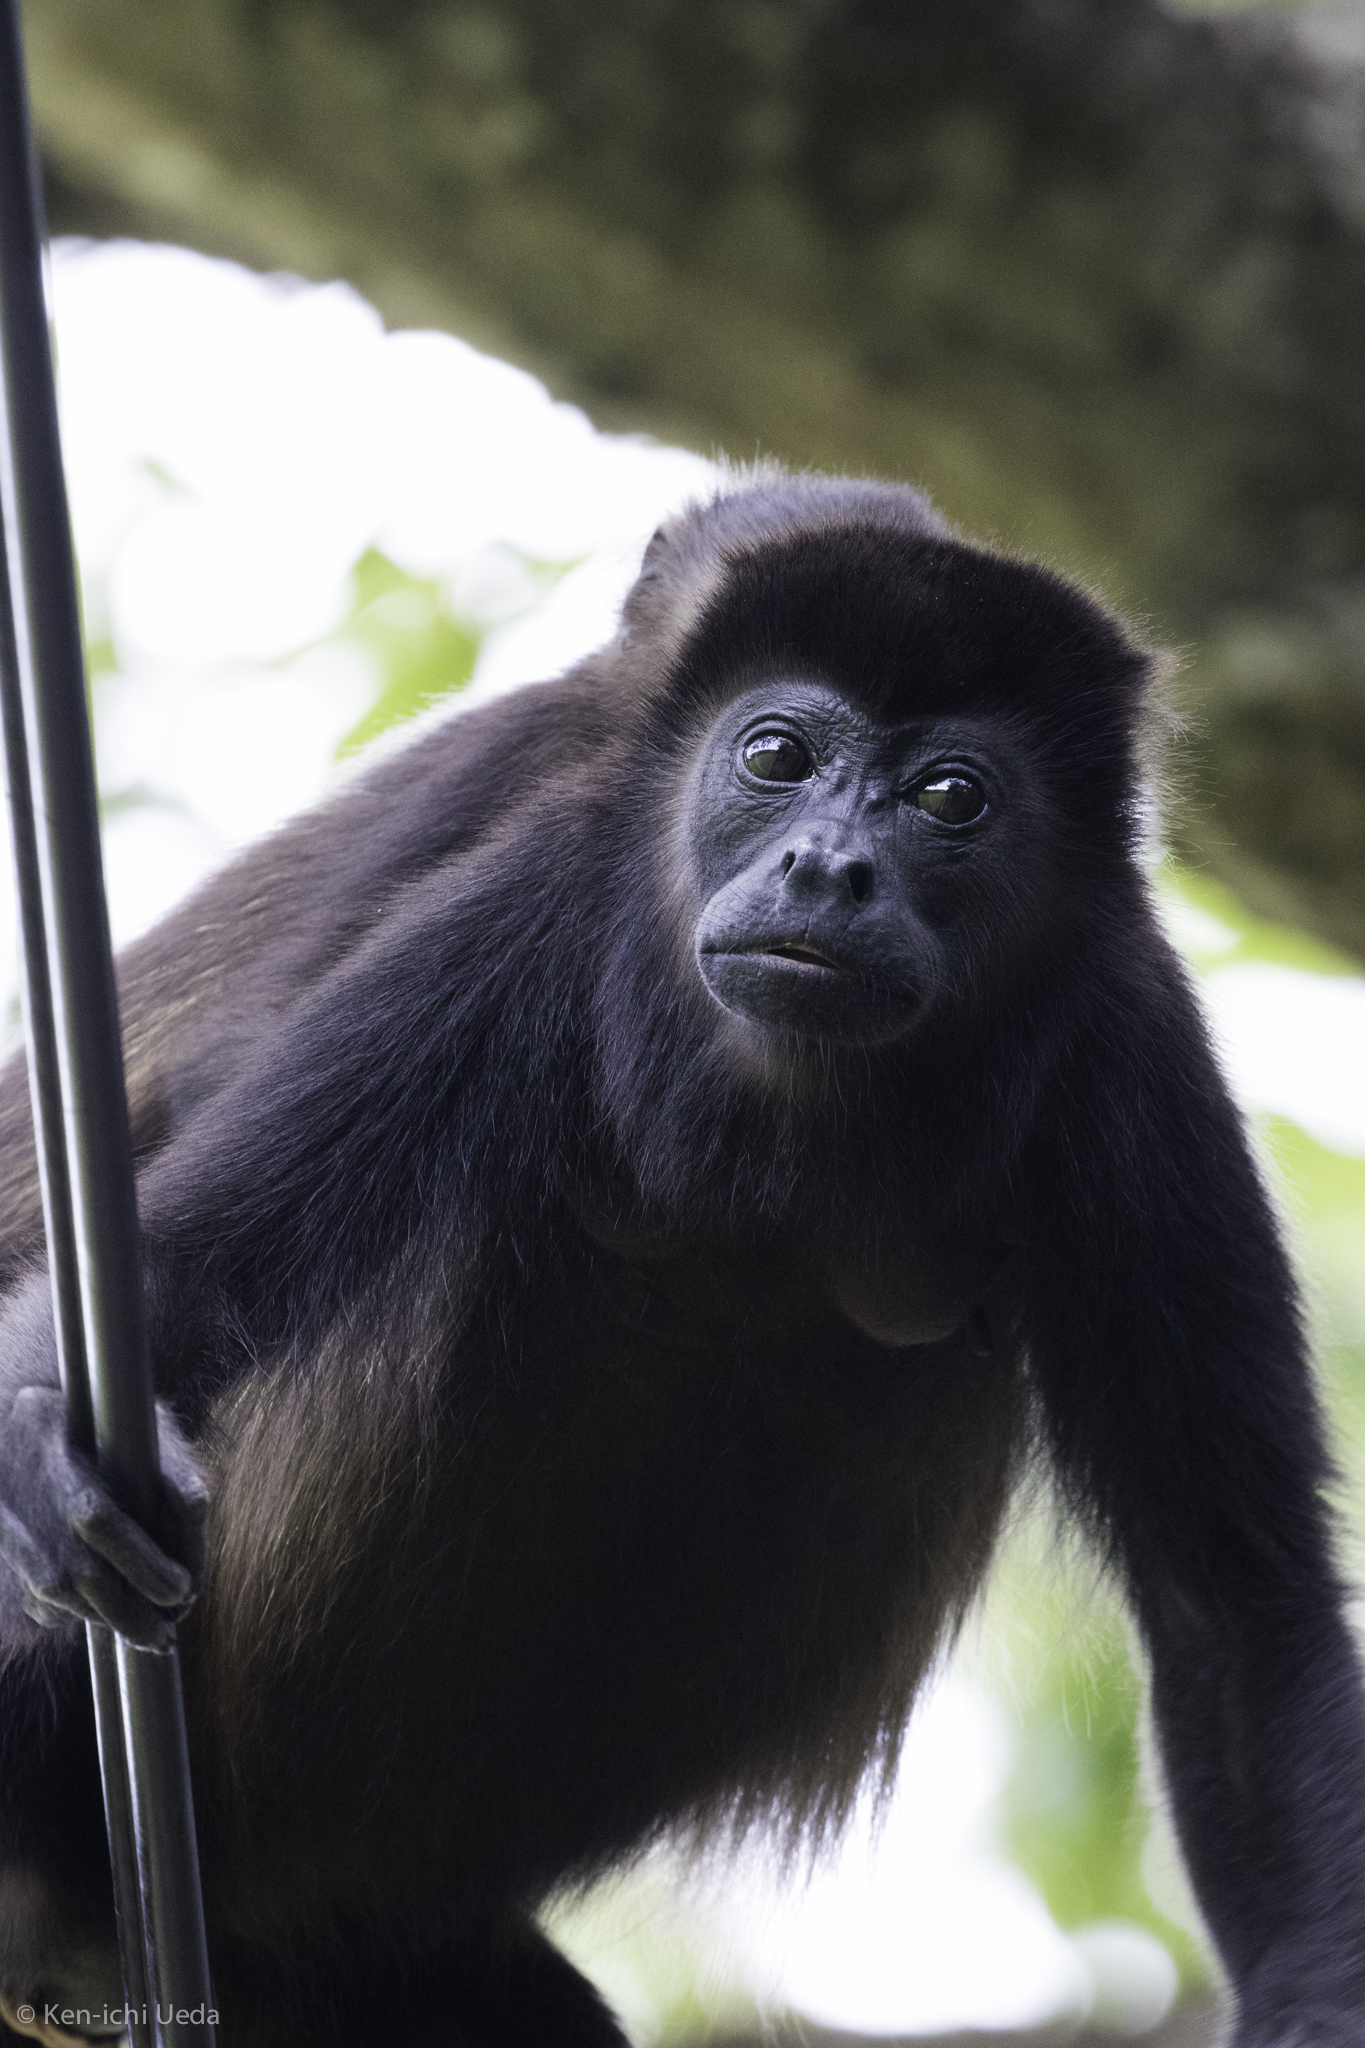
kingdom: Animalia
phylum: Chordata
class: Mammalia
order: Primates
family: Atelidae
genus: Alouatta
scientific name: Alouatta palliata
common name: Mantled howler
